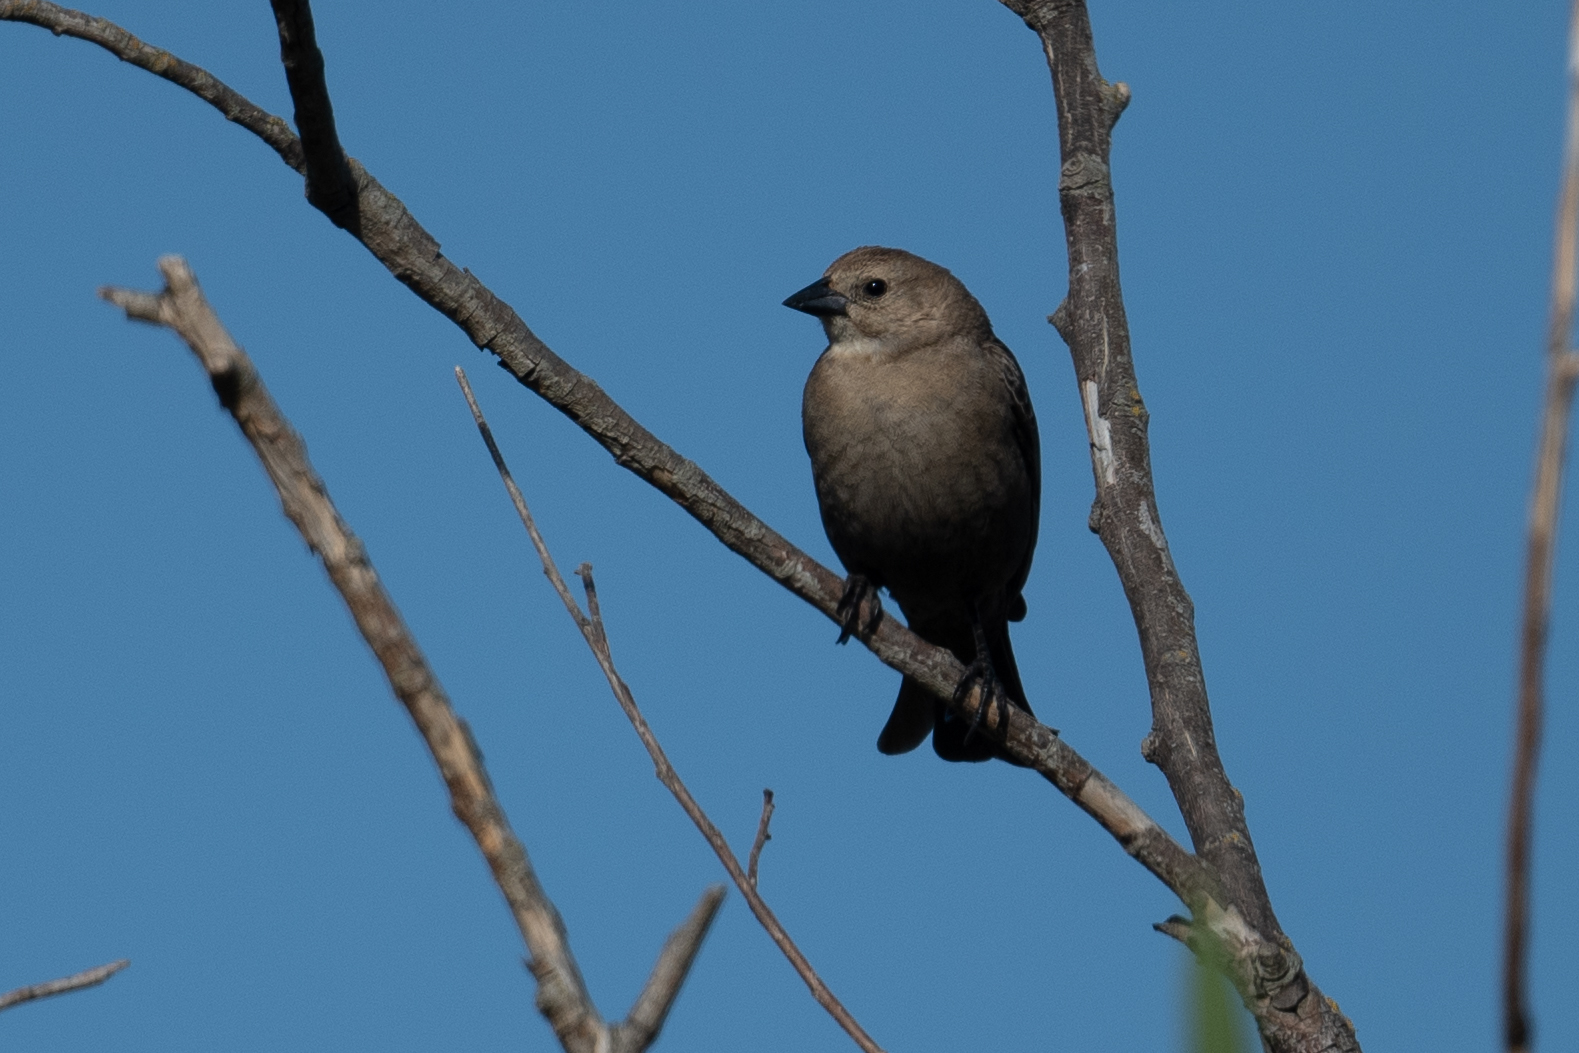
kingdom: Animalia
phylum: Chordata
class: Aves
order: Passeriformes
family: Icteridae
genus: Molothrus
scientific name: Molothrus ater
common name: Brown-headed cowbird
